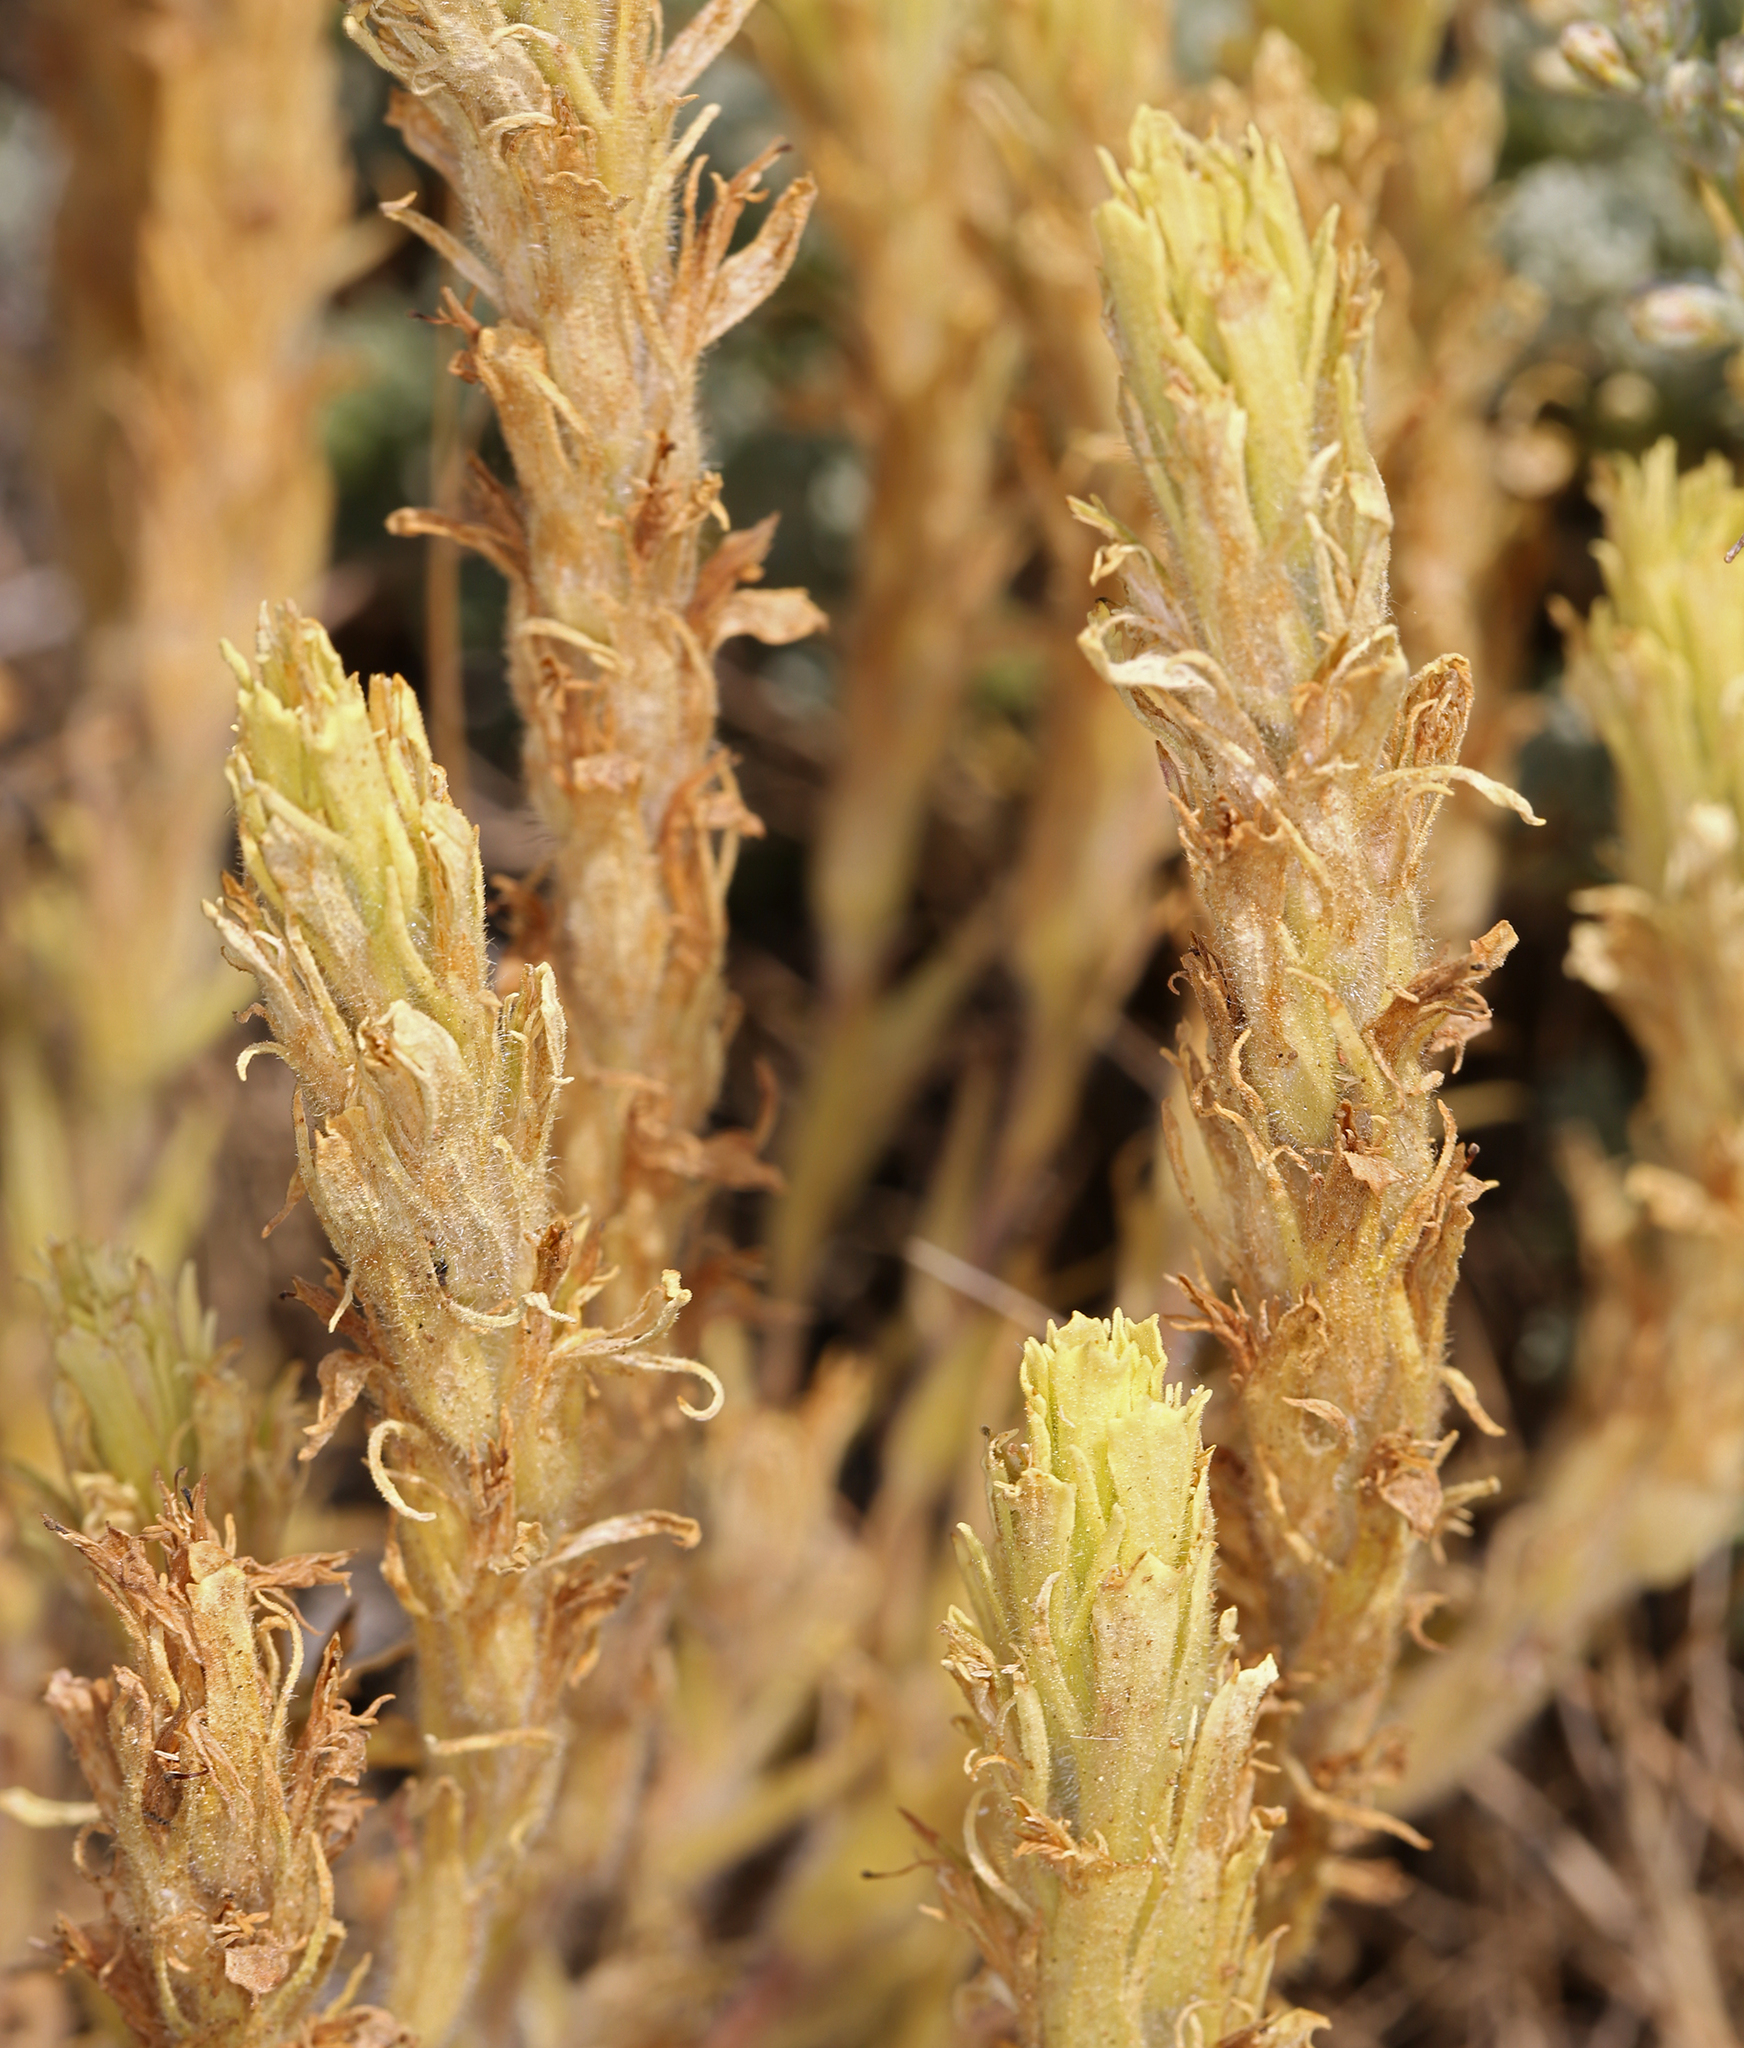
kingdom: Plantae
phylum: Tracheophyta
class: Magnoliopsida
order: Lamiales
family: Orobanchaceae
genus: Castilleja
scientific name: Castilleja pilosa
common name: Hairy paintbrush
